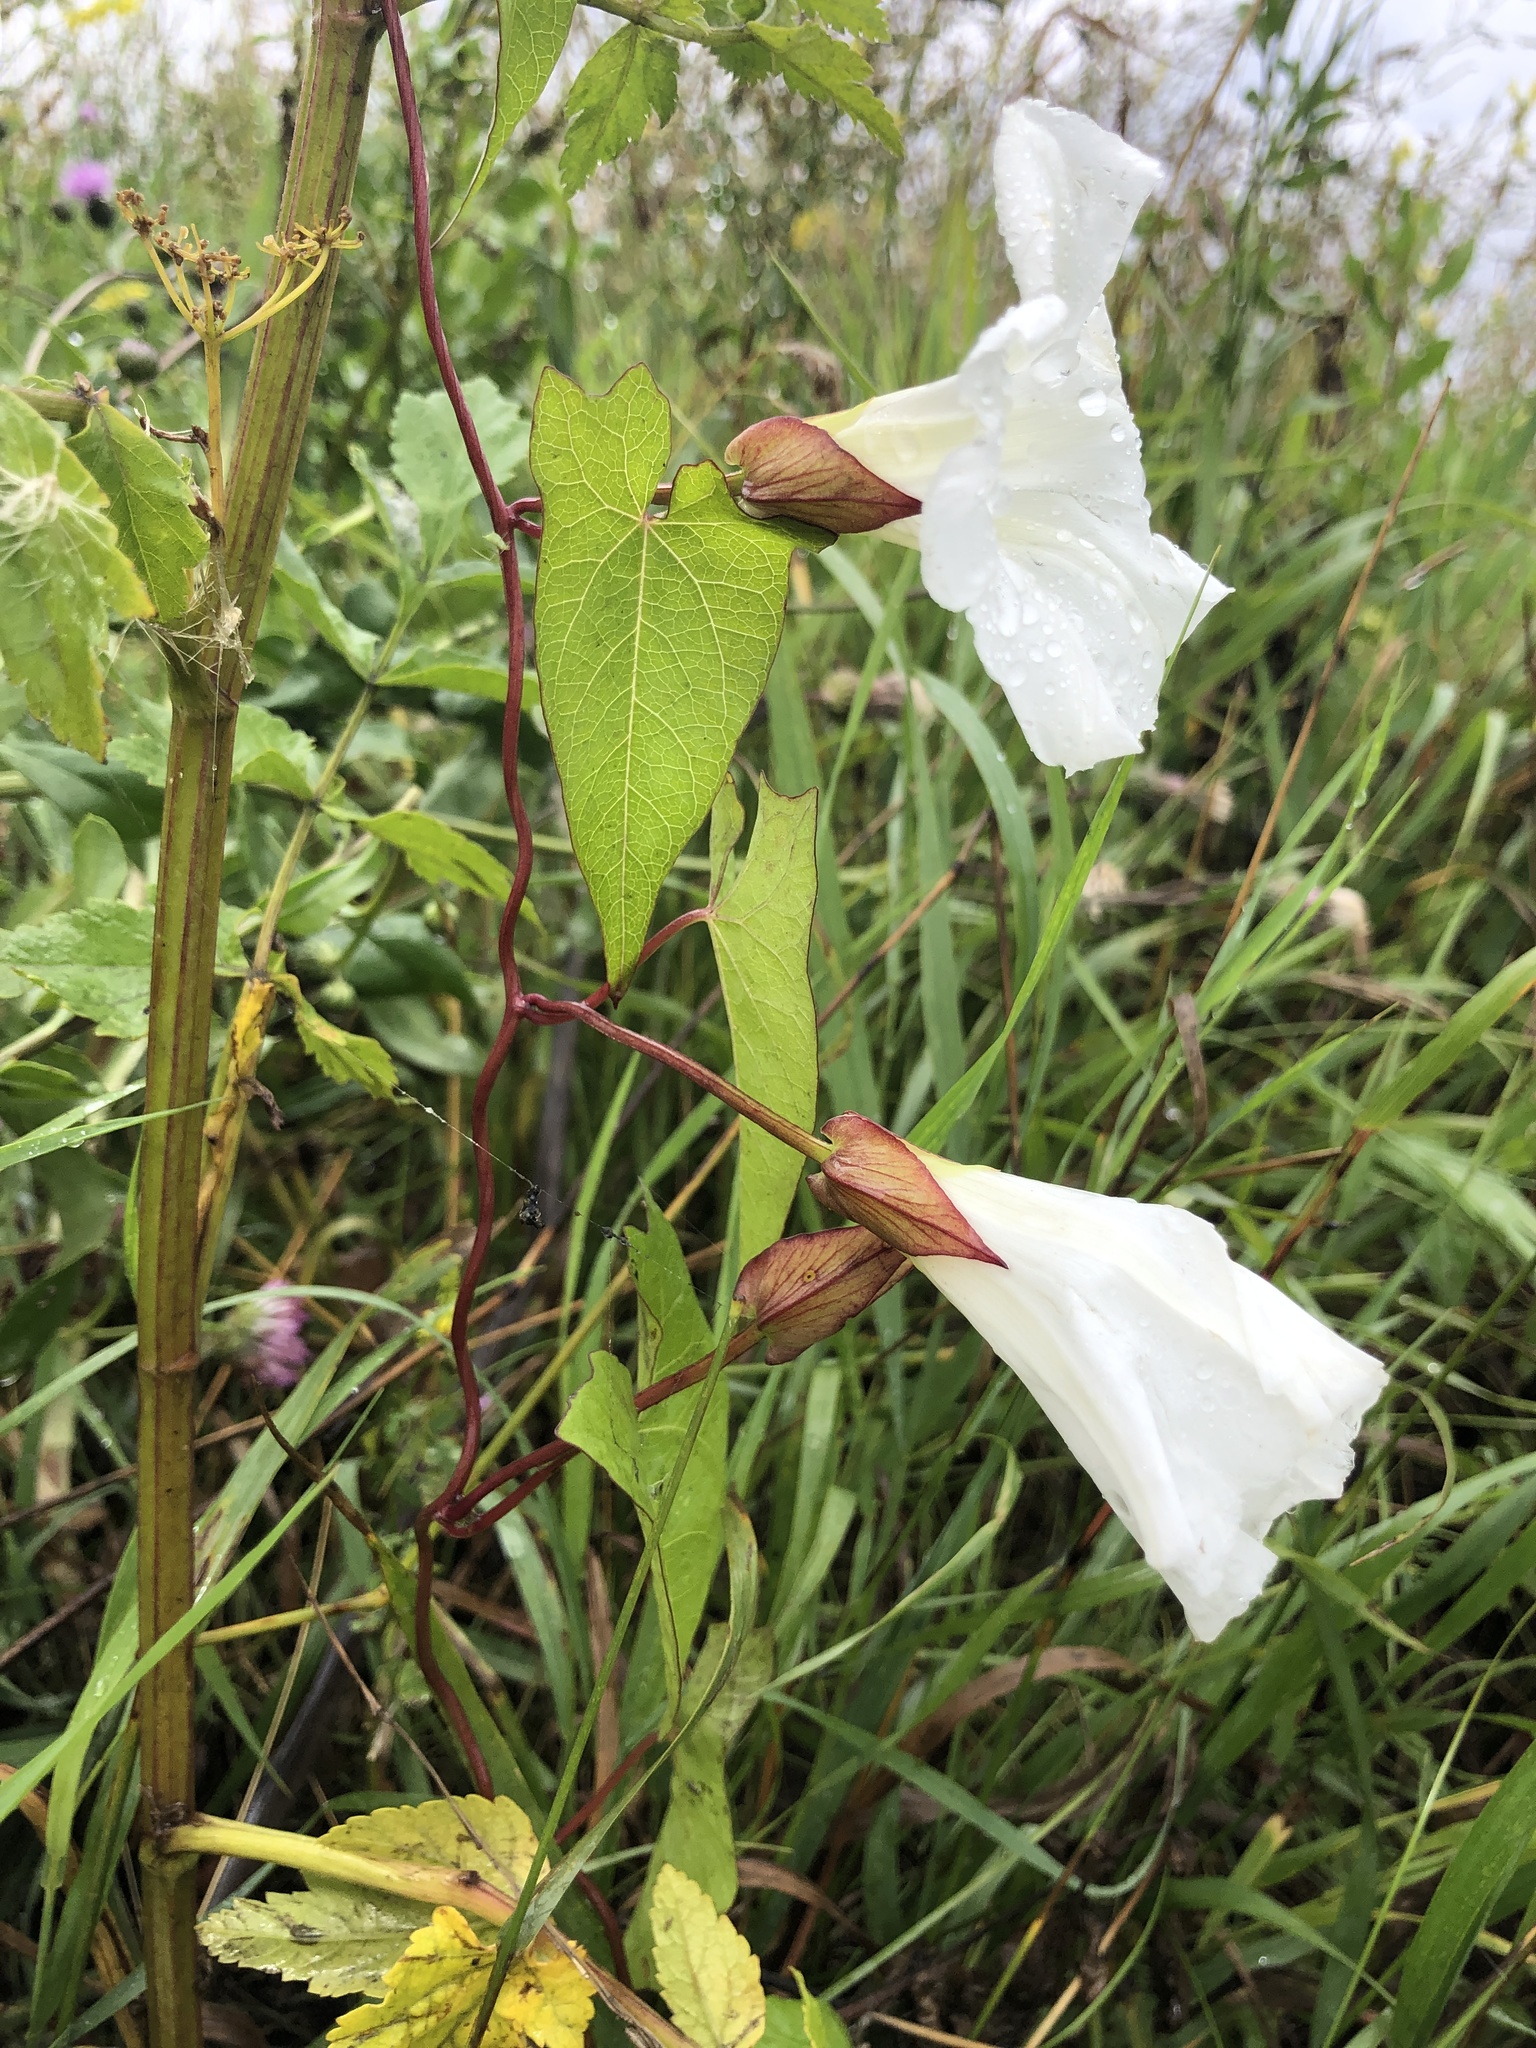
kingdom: Plantae
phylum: Tracheophyta
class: Magnoliopsida
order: Solanales
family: Convolvulaceae
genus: Calystegia
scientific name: Calystegia sepium
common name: Hedge bindweed
